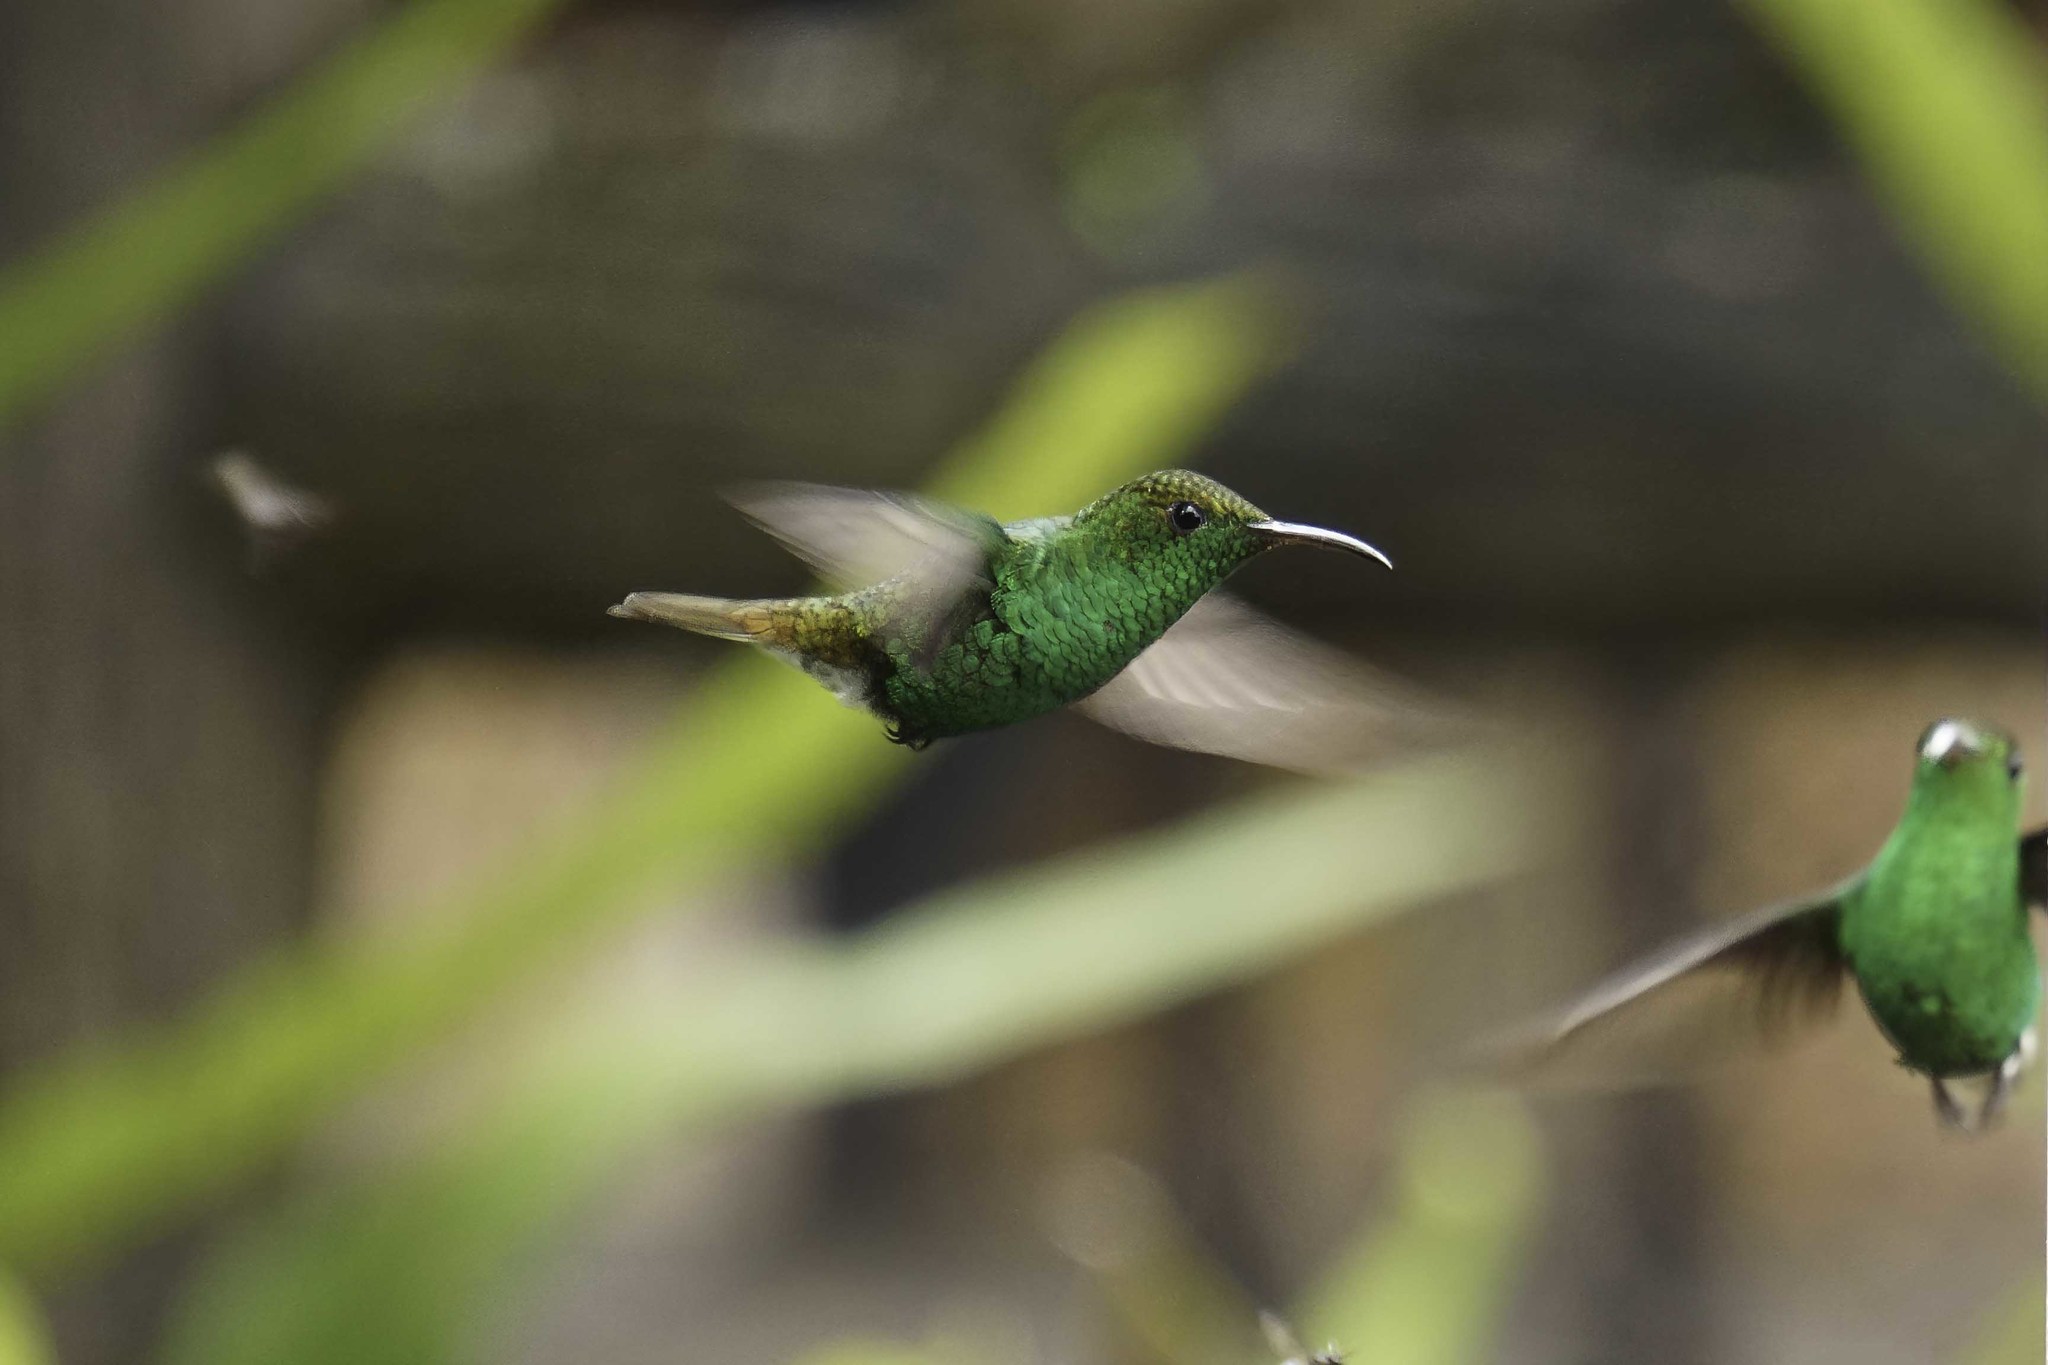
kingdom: Animalia
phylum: Chordata
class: Aves
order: Apodiformes
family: Trochilidae
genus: Microchera
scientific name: Microchera cupreiceps
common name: Coppery-headed emerald
